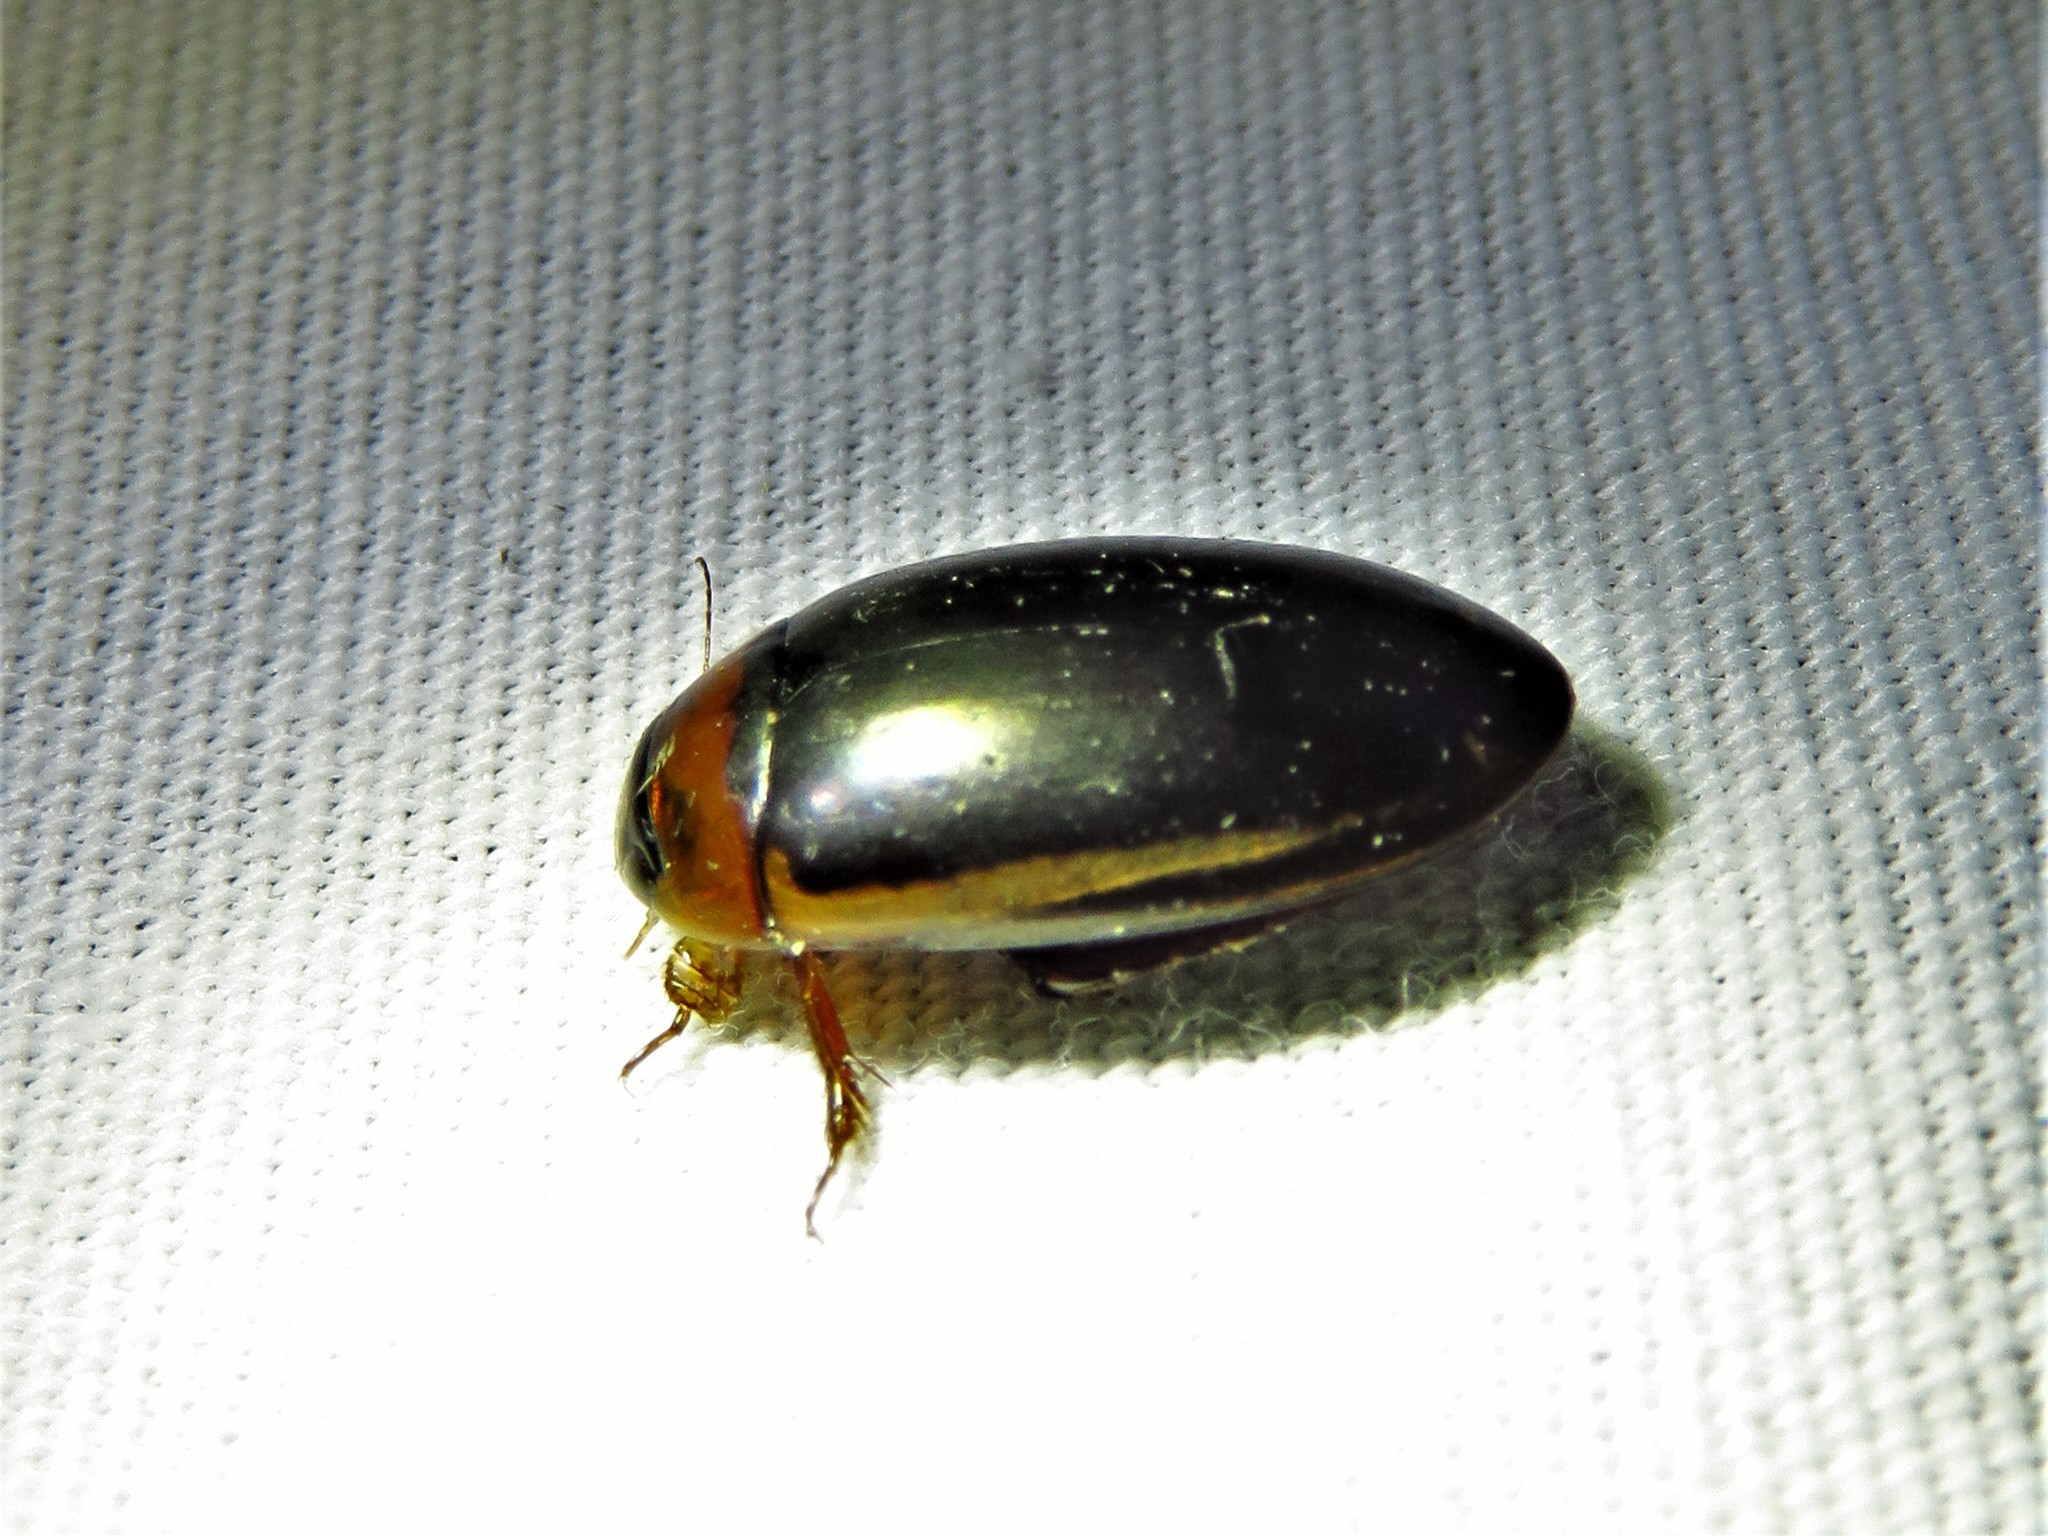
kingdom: Animalia
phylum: Arthropoda
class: Insecta
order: Coleoptera
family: Dytiscidae
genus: Hydaticus
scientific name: Hydaticus bimarginatus
